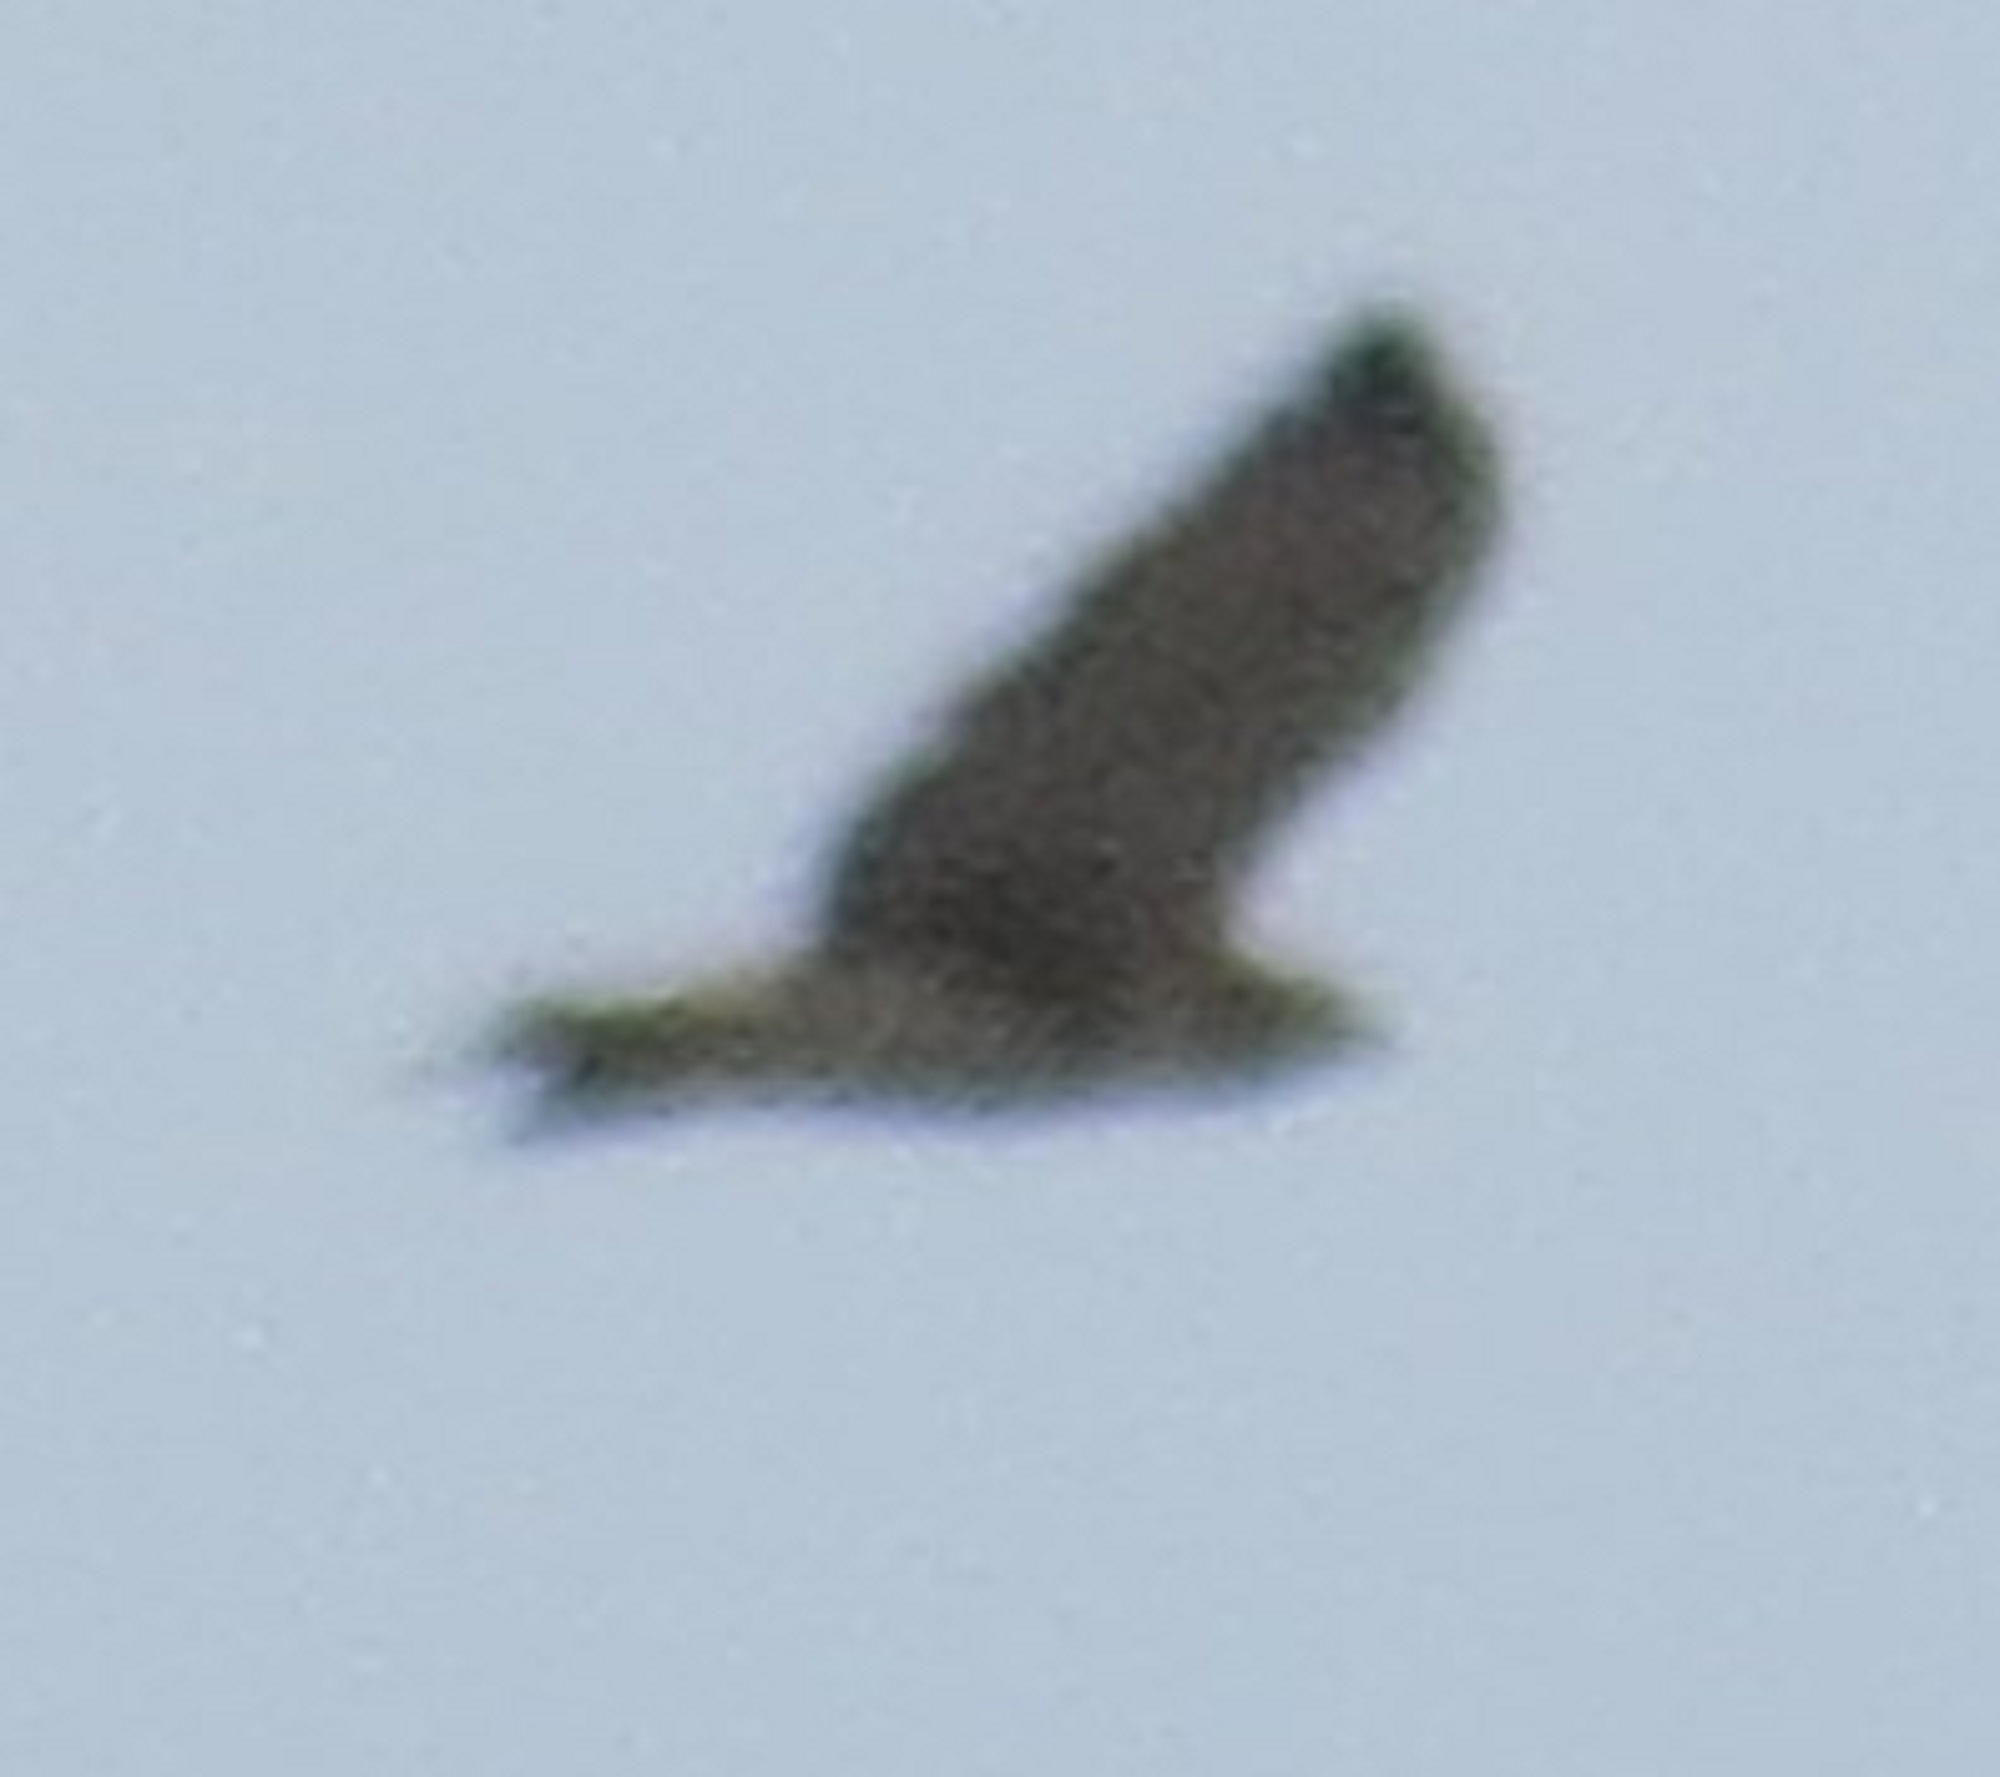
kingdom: Animalia
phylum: Chordata
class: Aves
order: Accipitriformes
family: Accipitridae
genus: Buteo
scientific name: Buteo jamaicensis
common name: Red-tailed hawk
